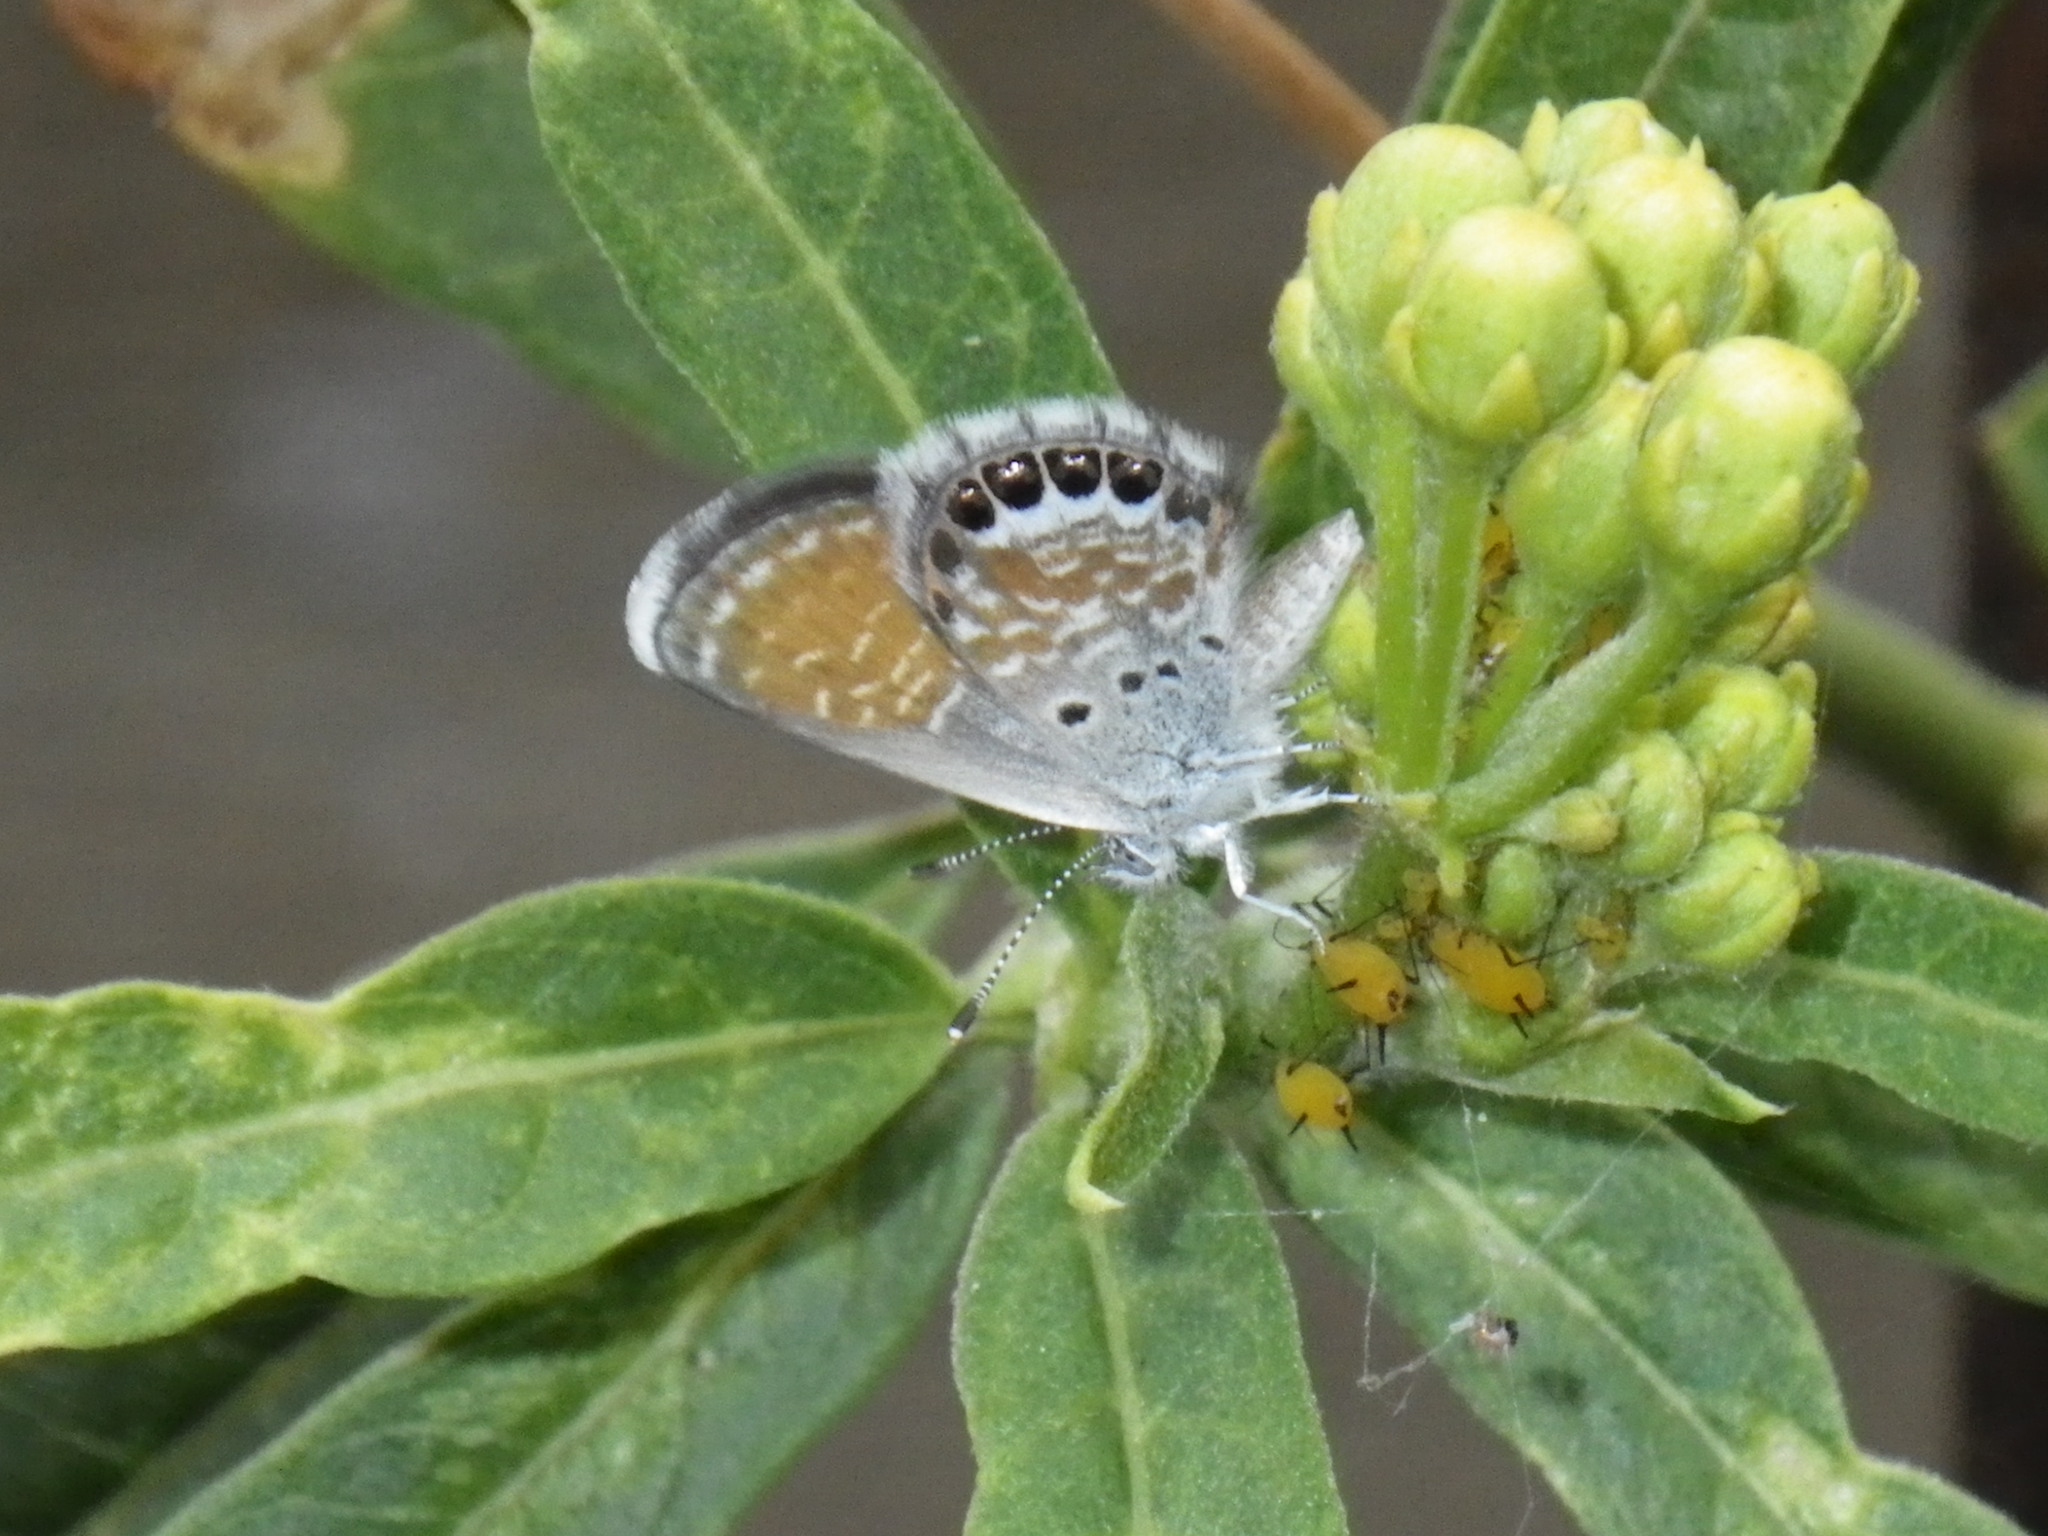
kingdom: Animalia
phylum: Arthropoda
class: Insecta
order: Lepidoptera
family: Lycaenidae
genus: Brephidium
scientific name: Brephidium exilis
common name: Pygmy blue
